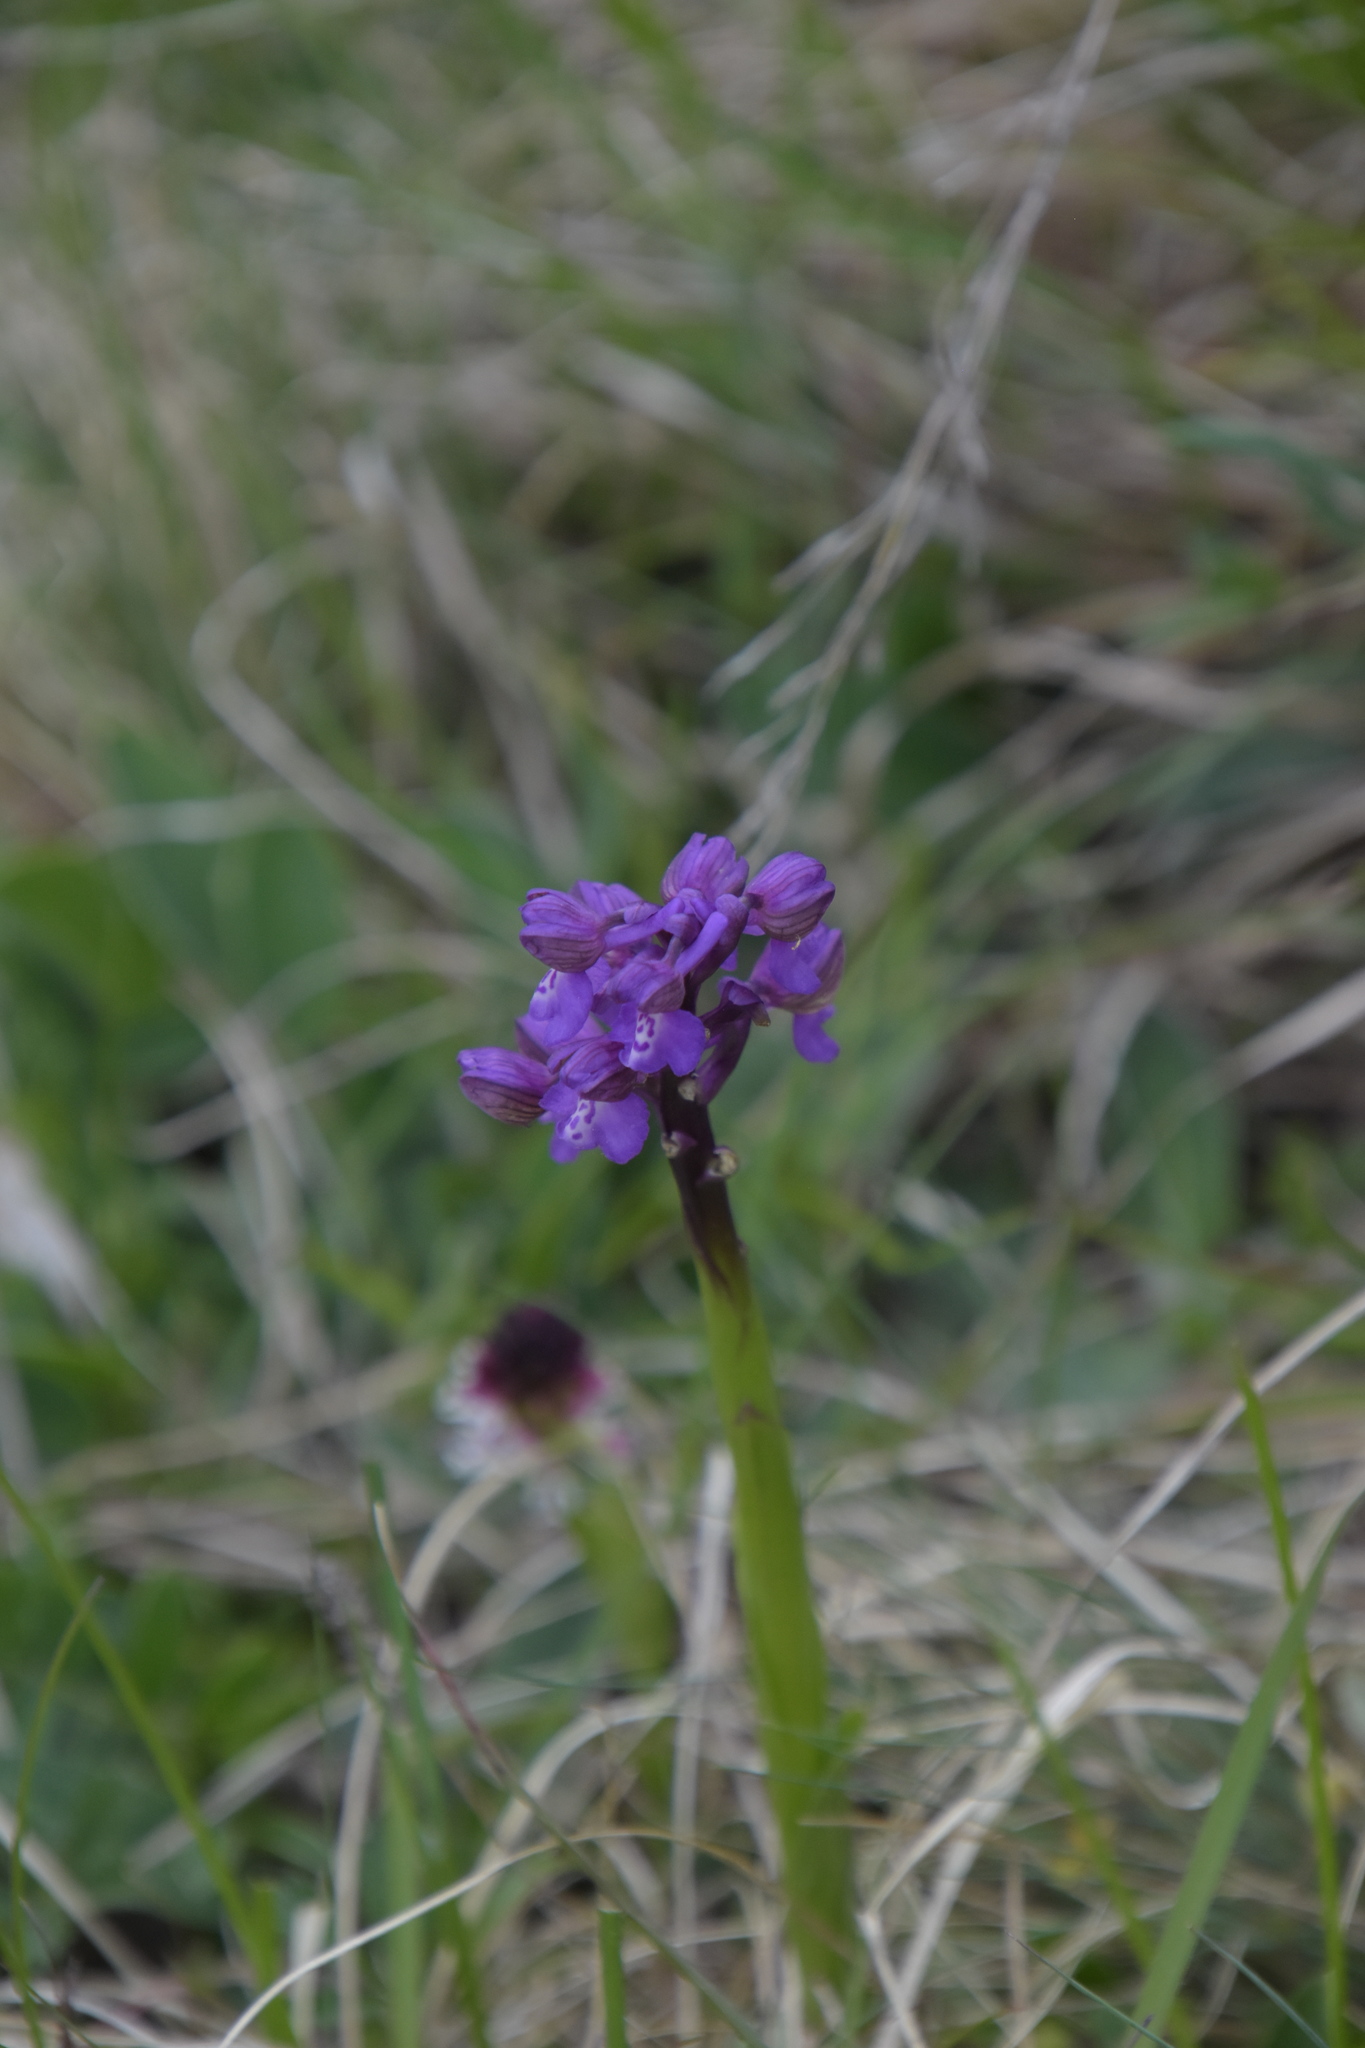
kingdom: Plantae
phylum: Tracheophyta
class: Liliopsida
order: Asparagales
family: Orchidaceae
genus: Anacamptis
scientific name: Anacamptis morio
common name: Green-winged orchid
